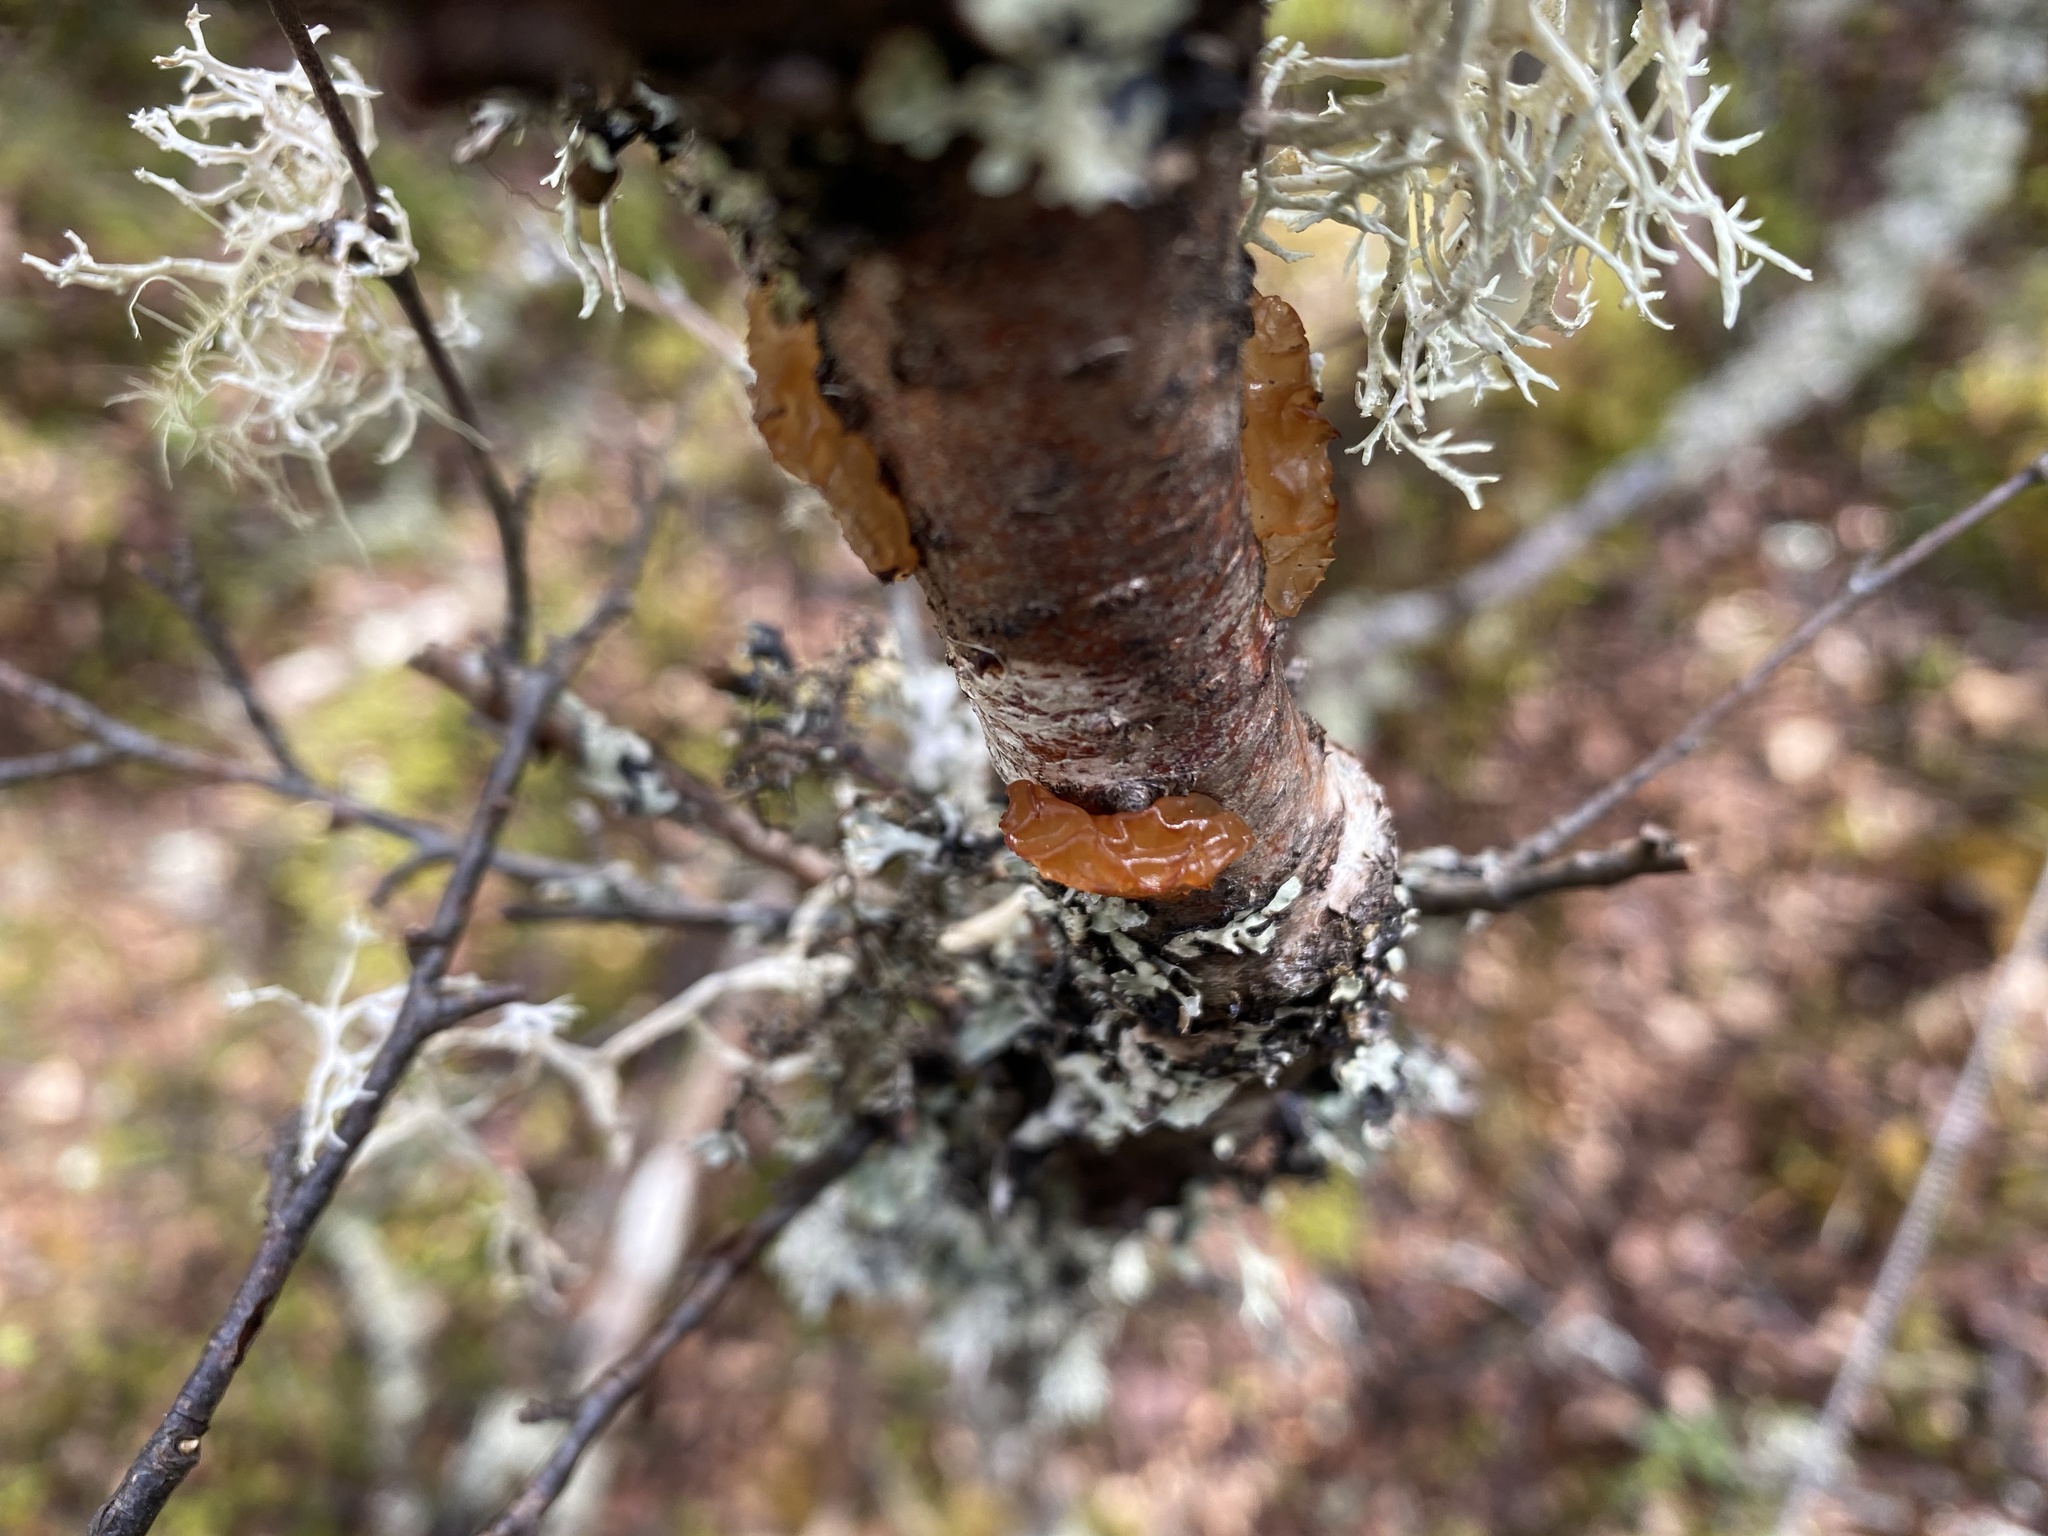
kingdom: Fungi
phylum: Basidiomycota
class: Agaricomycetes
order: Auriculariales
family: Auriculariaceae
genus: Exidia
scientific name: Exidia repanda
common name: Birch jelly
